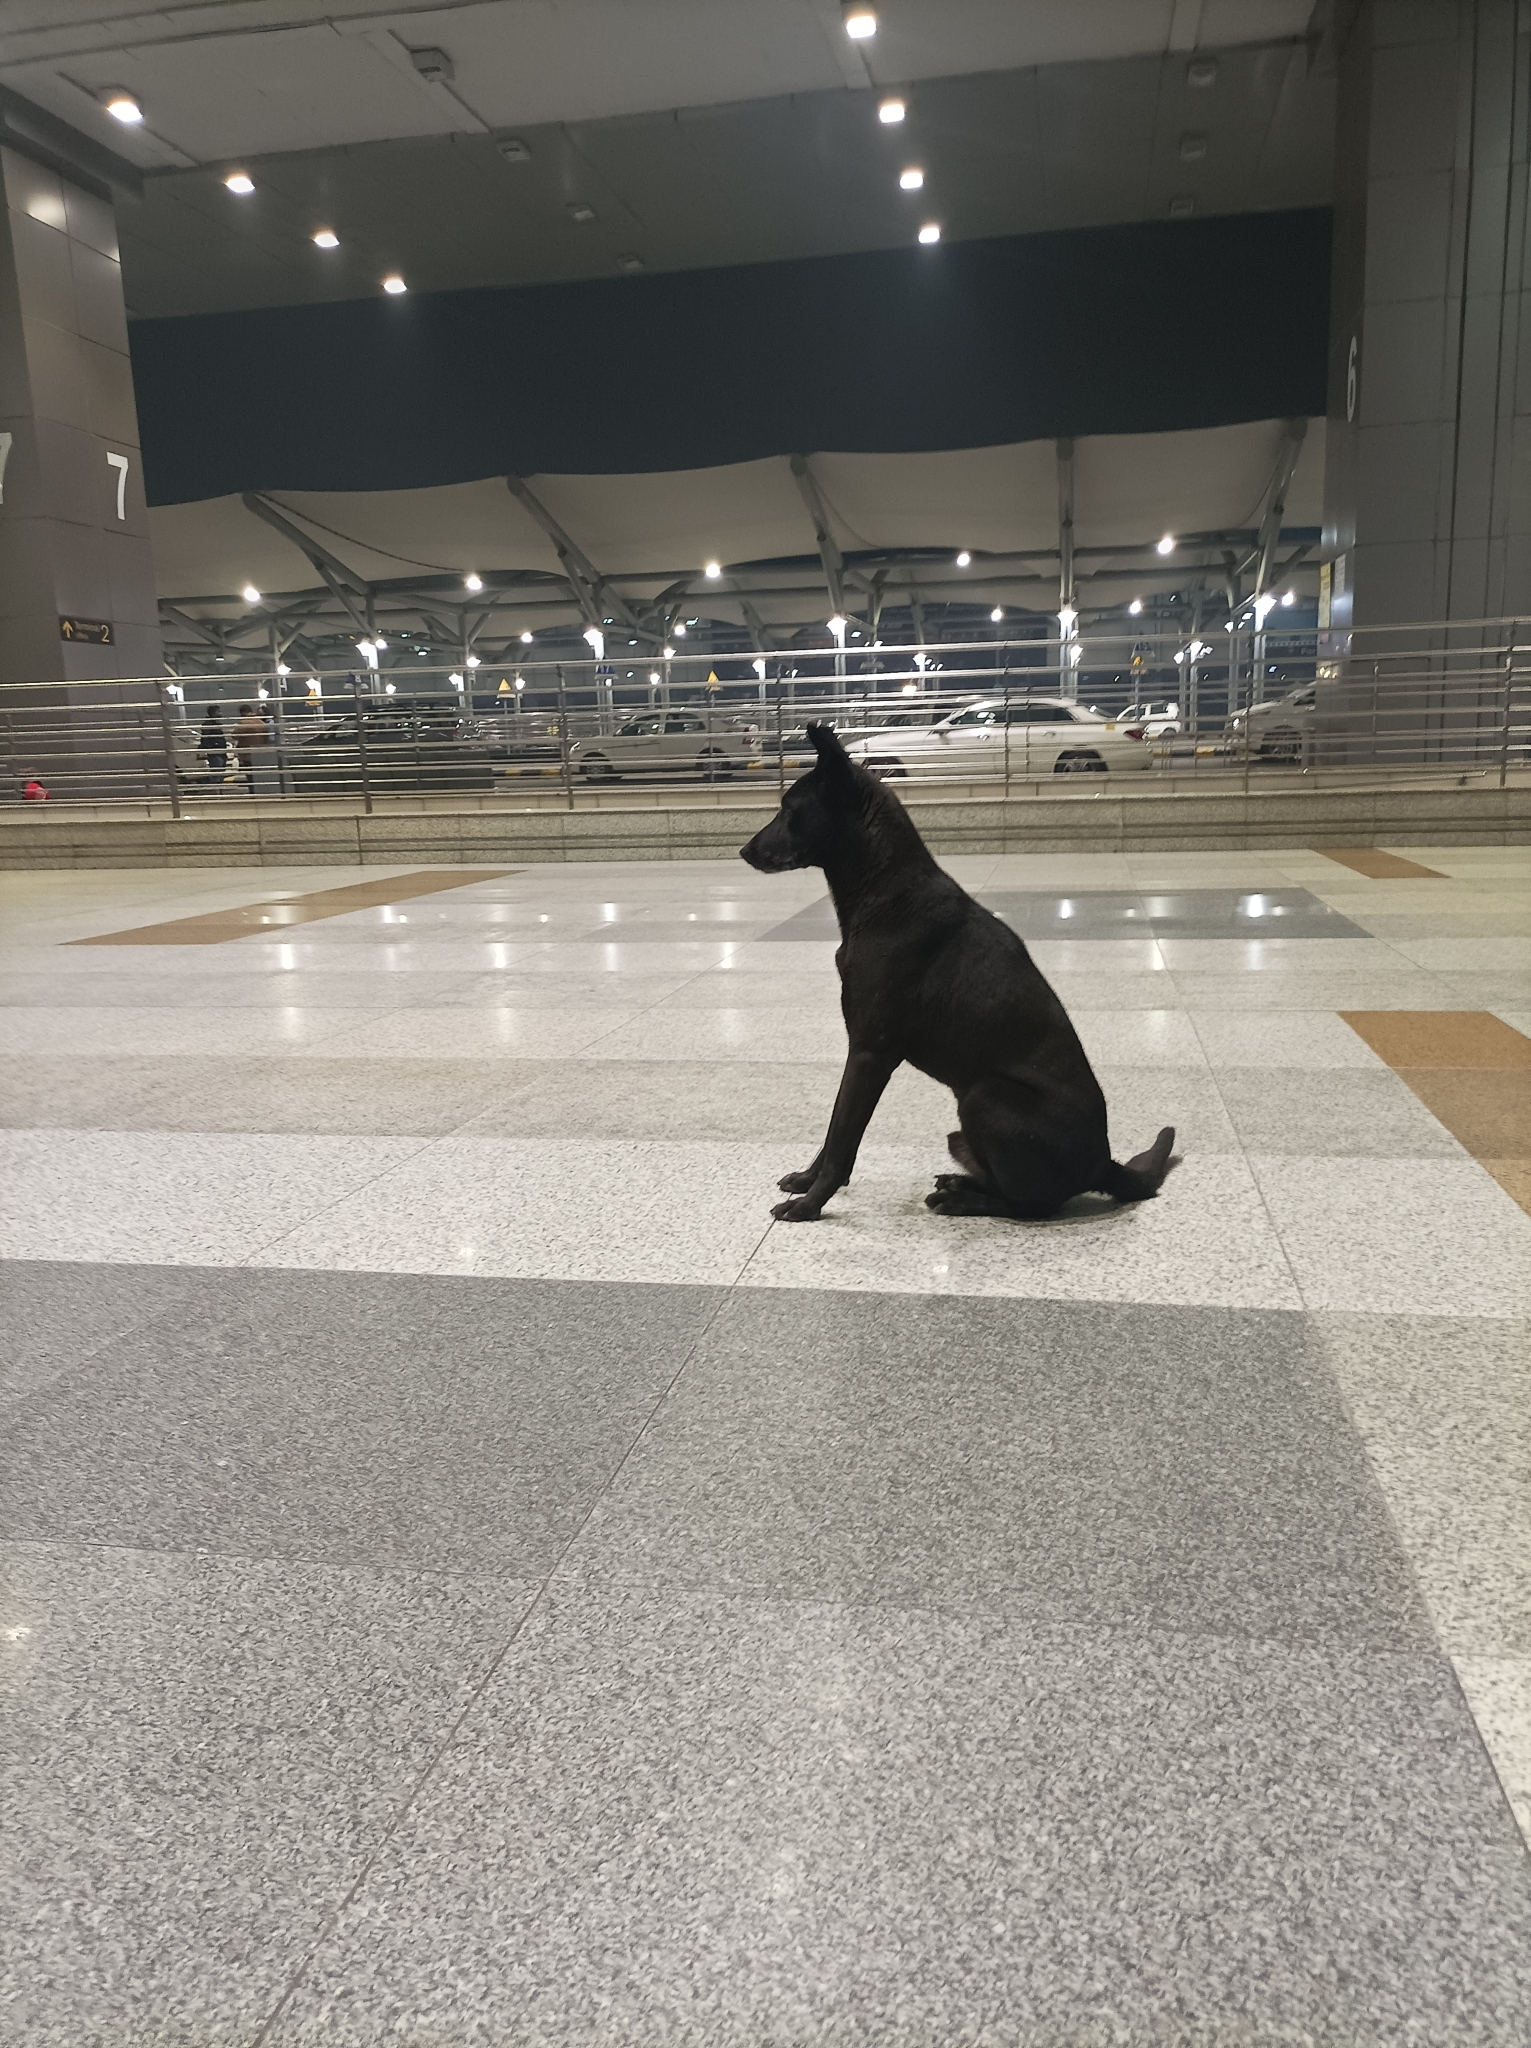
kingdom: Animalia
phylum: Chordata
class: Mammalia
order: Carnivora
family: Canidae
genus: Canis
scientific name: Canis lupus
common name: Gray wolf
